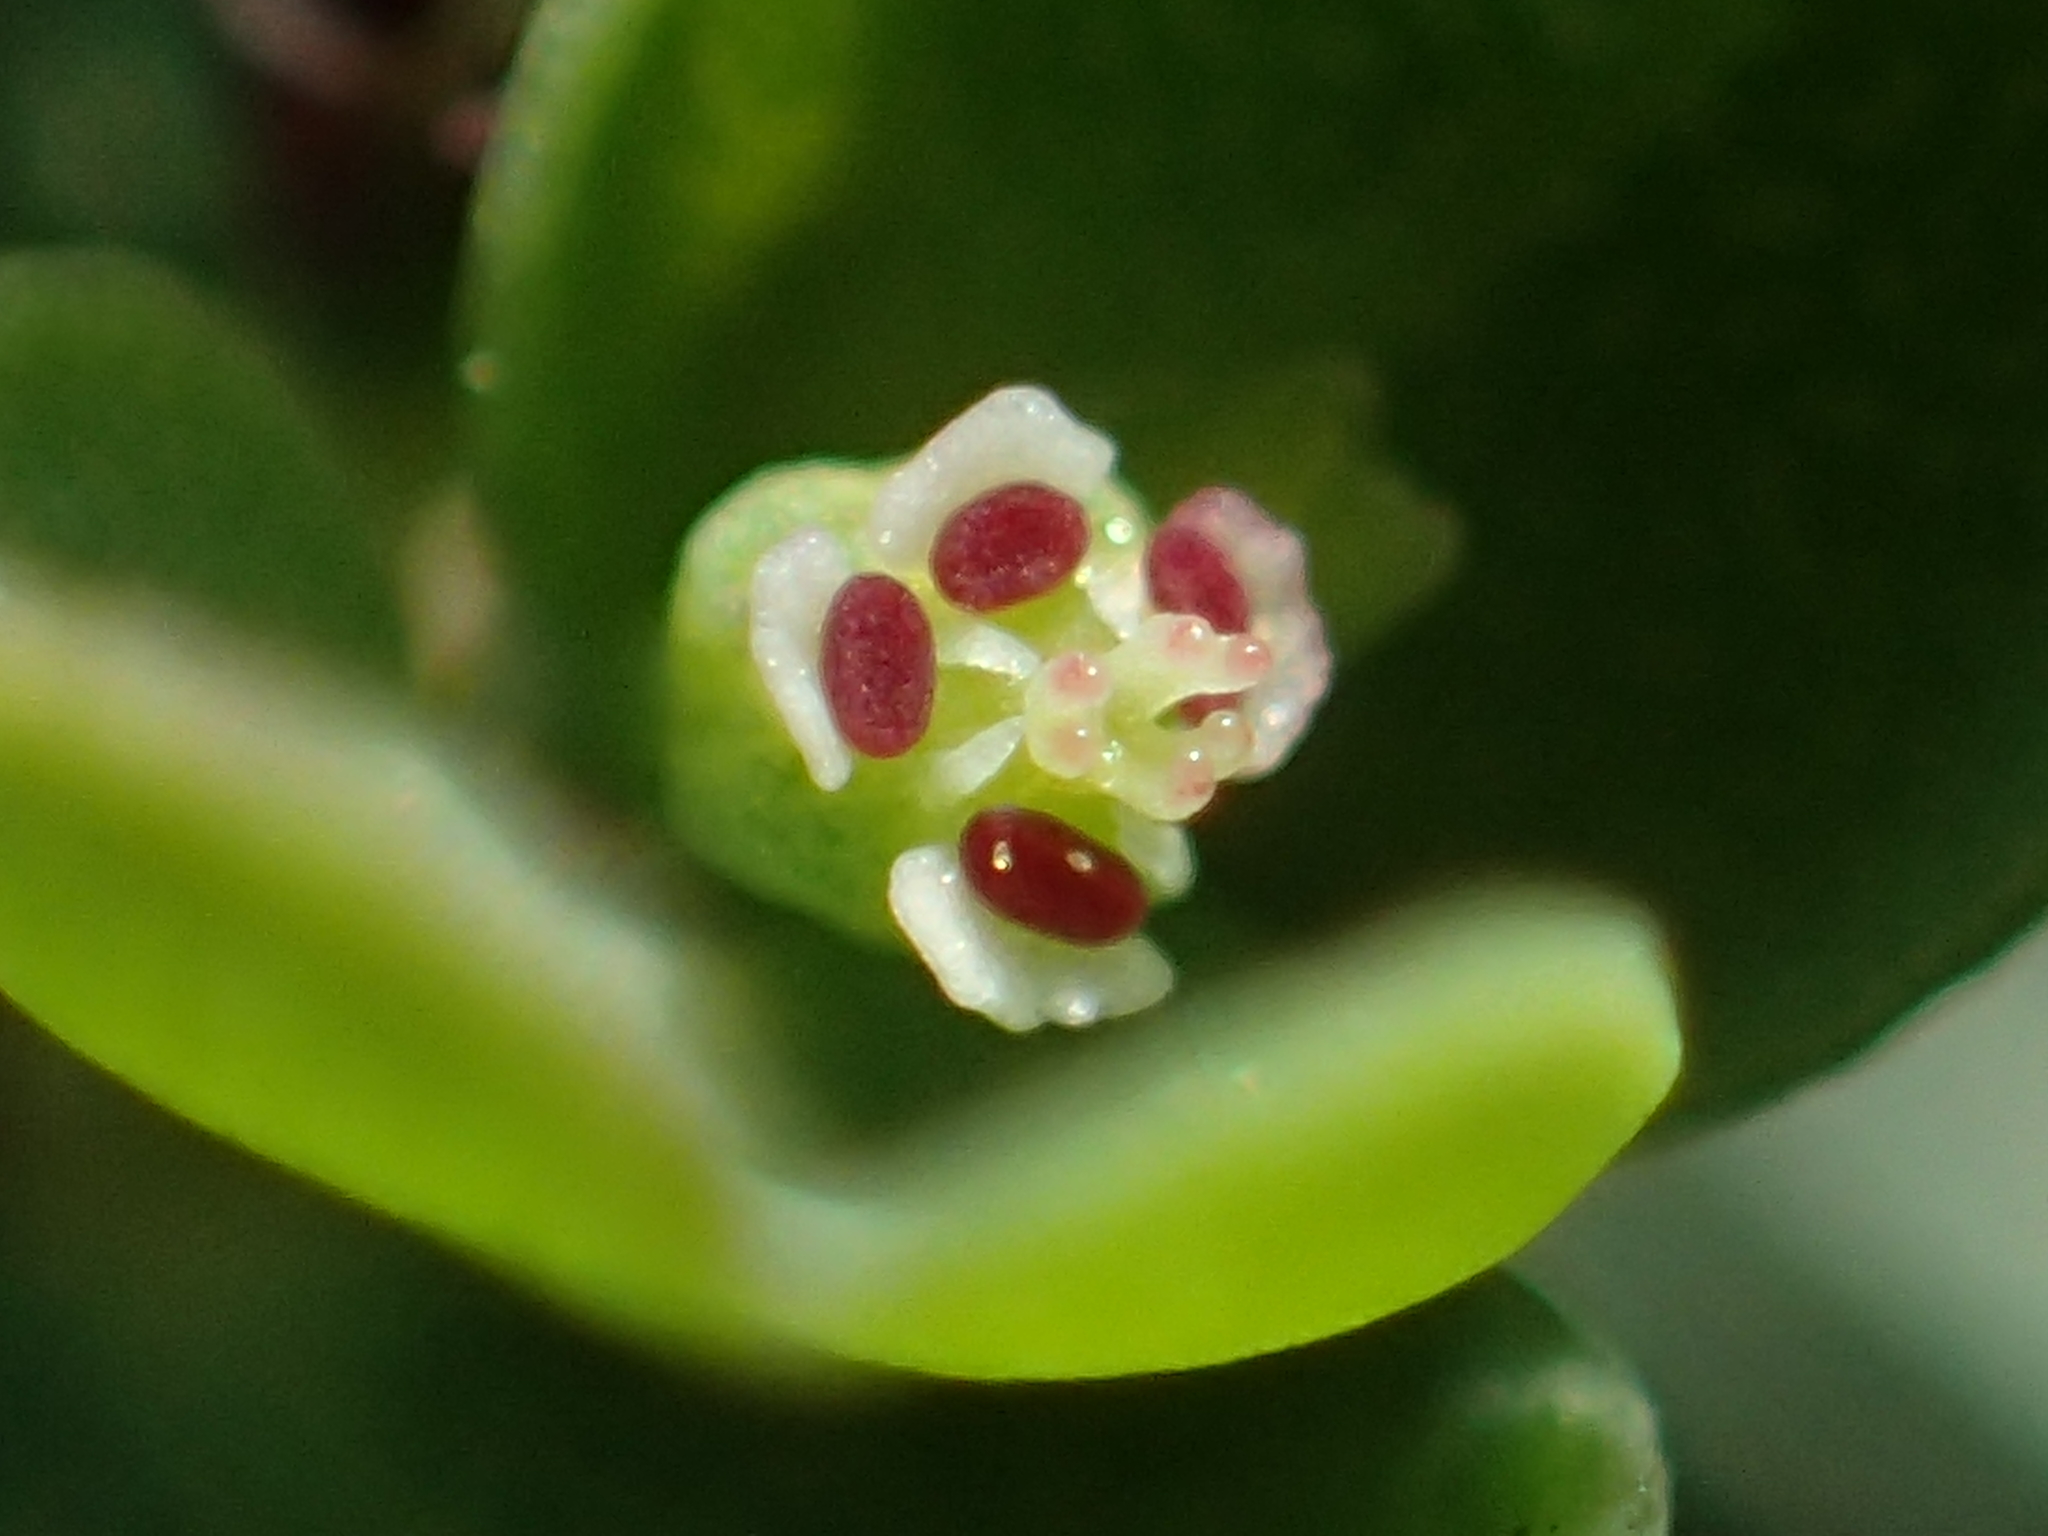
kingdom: Plantae
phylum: Tracheophyta
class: Magnoliopsida
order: Malpighiales
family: Euphorbiaceae
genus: Euphorbia
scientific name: Euphorbia serpens
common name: Matted sandmat
